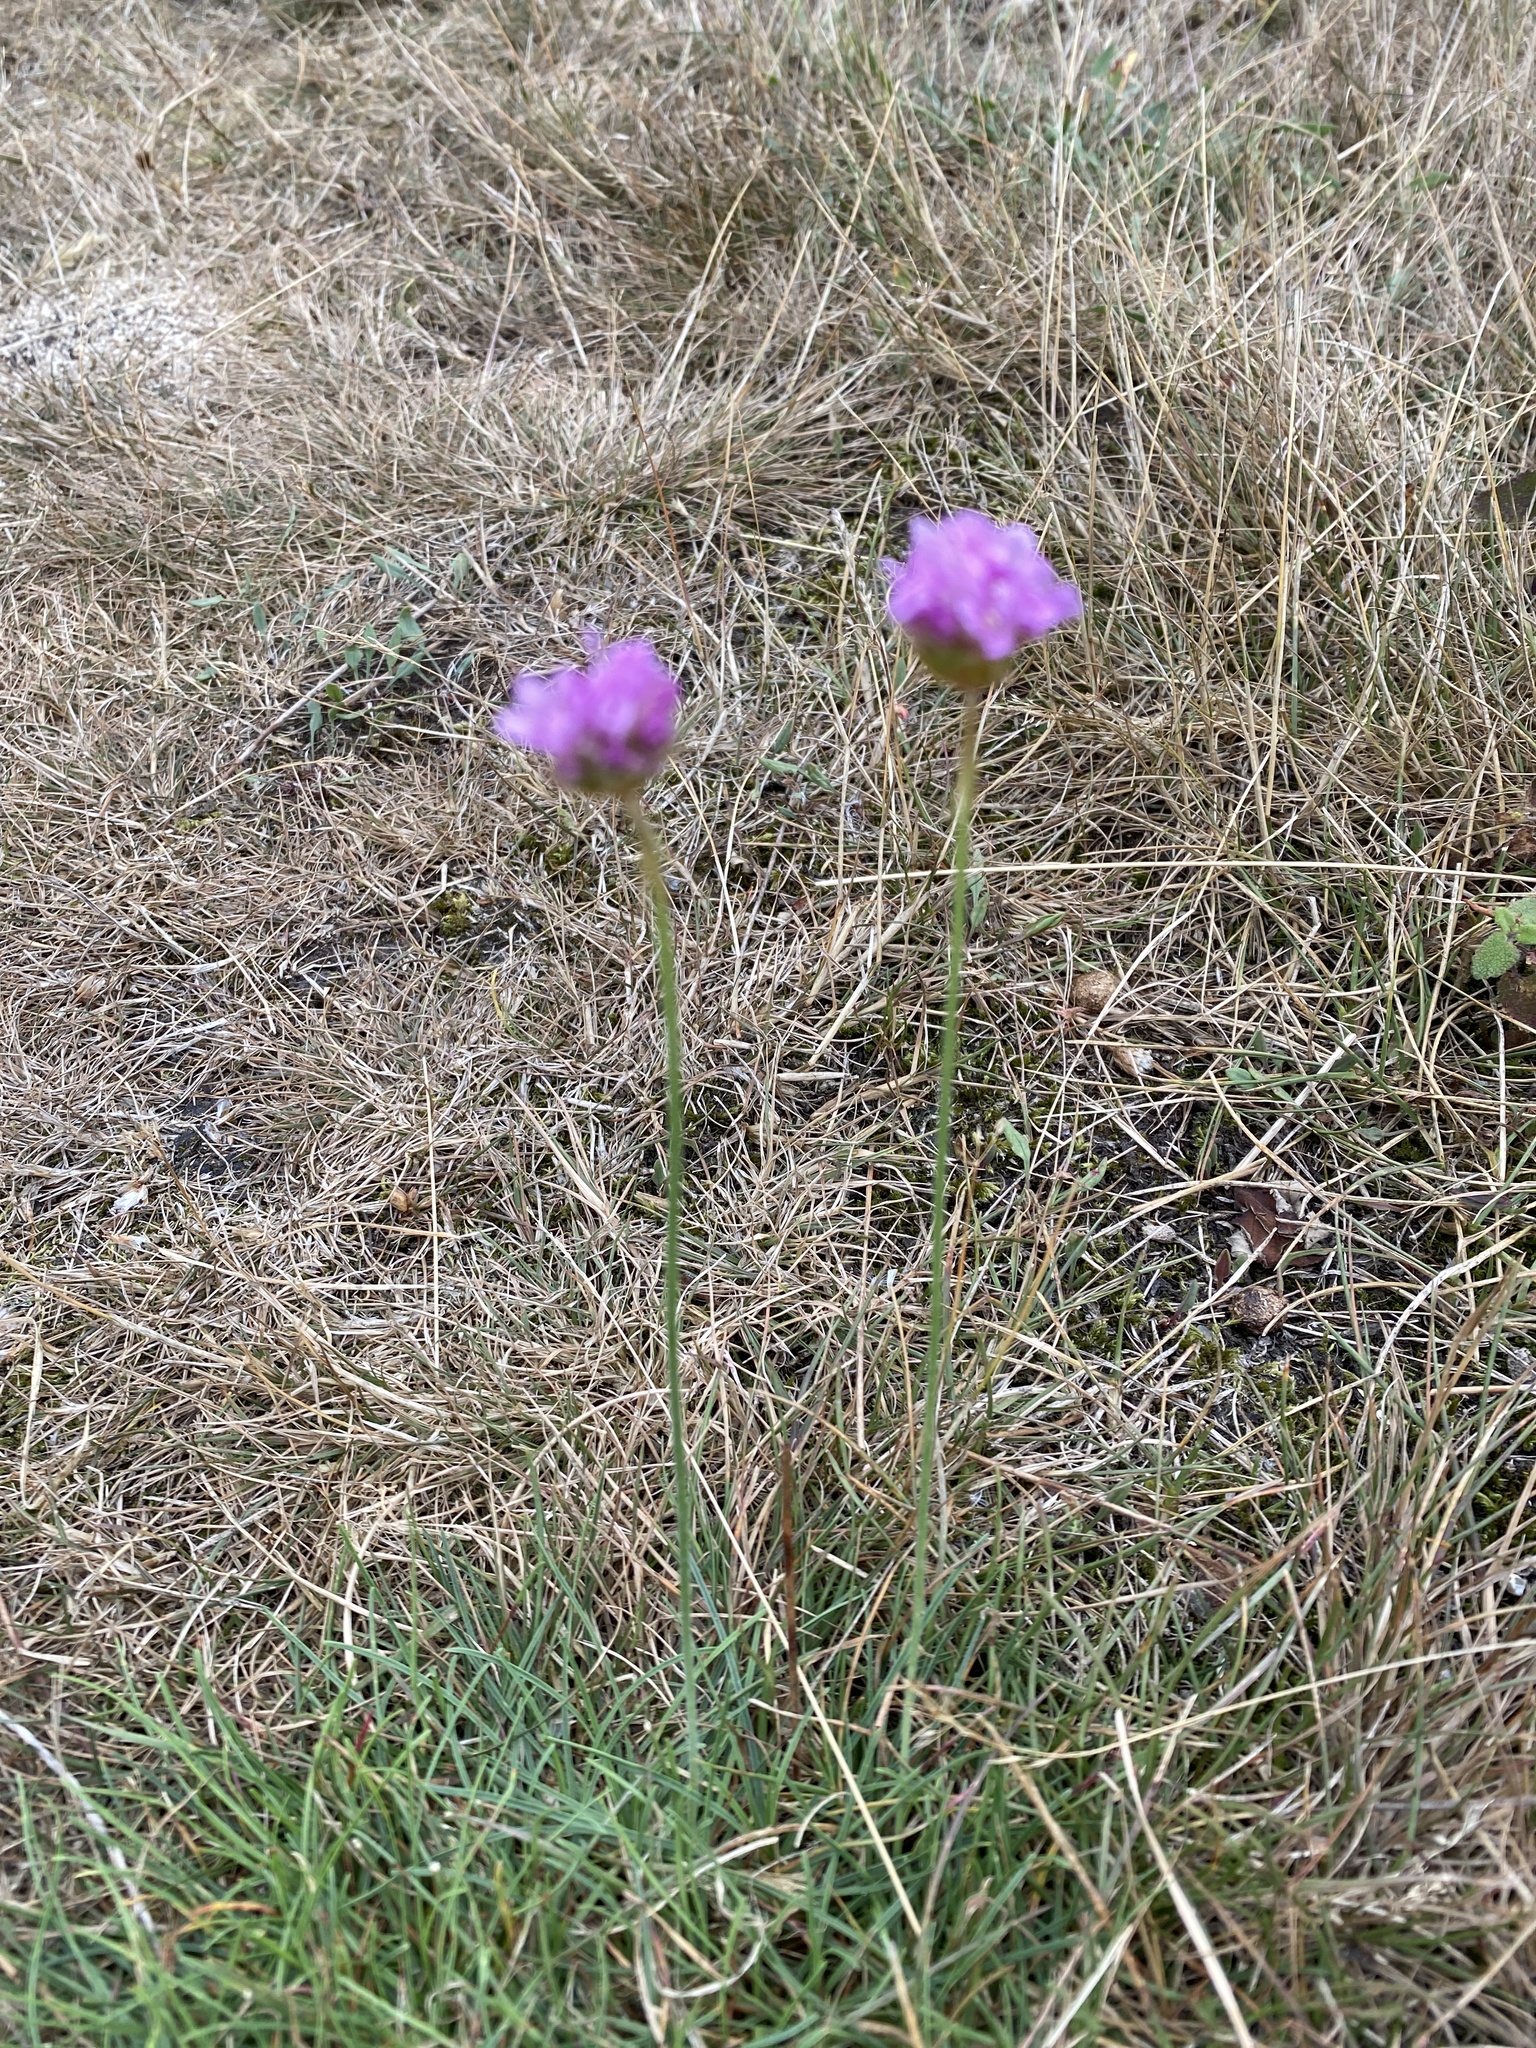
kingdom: Plantae
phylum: Tracheophyta
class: Magnoliopsida
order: Caryophyllales
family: Plumbaginaceae
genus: Armeria
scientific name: Armeria maritima
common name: Thrift
